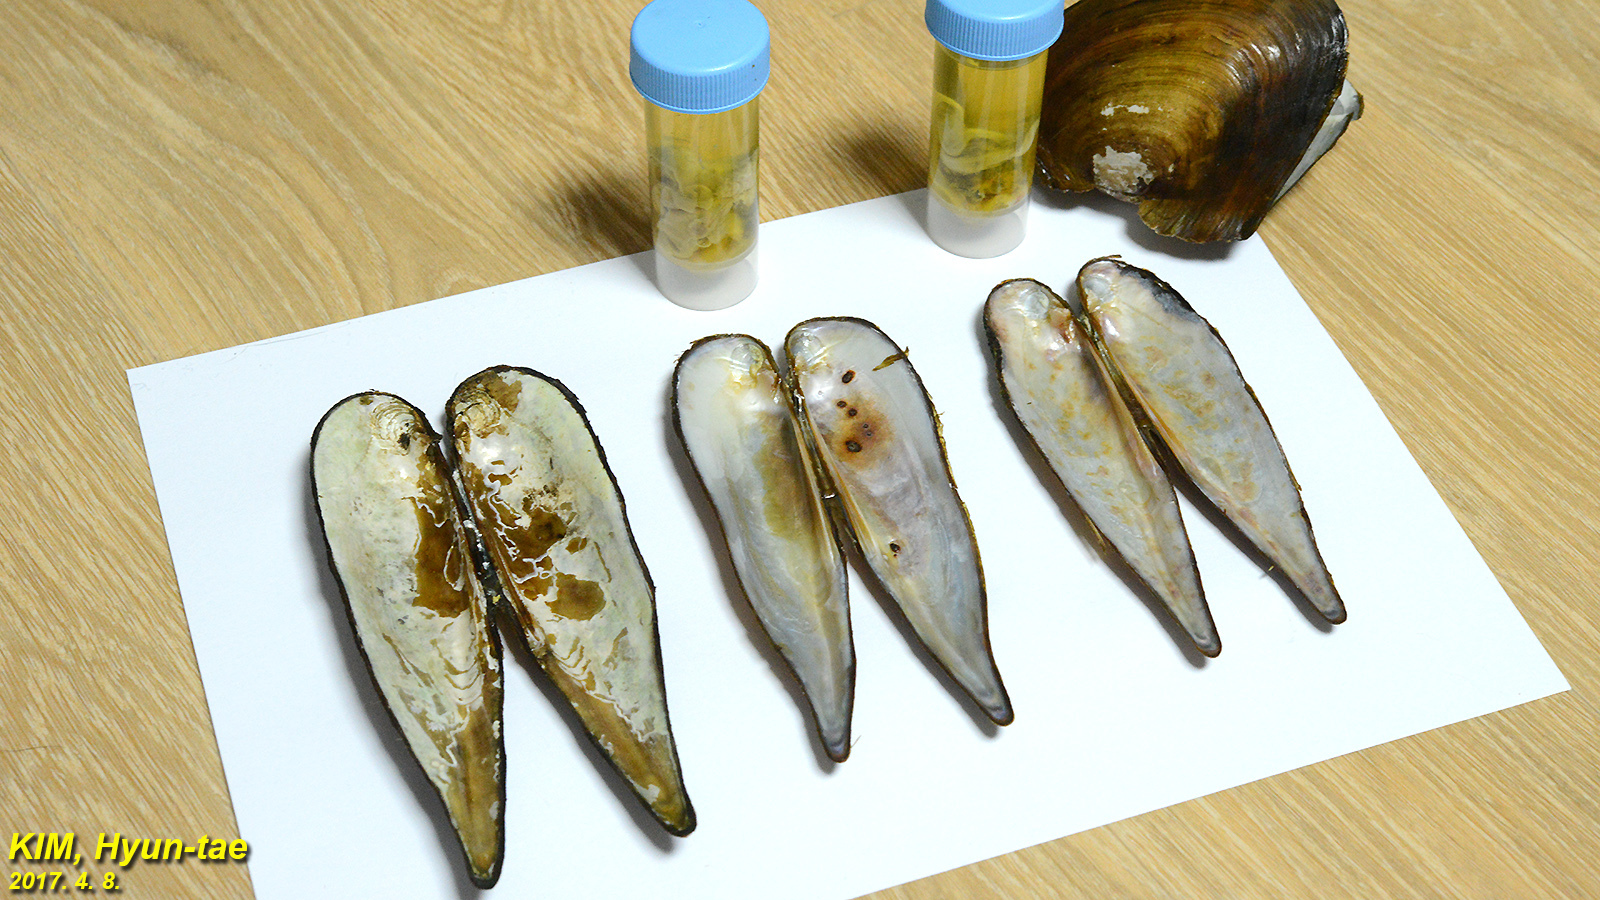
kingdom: Animalia
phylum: Mollusca
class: Bivalvia
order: Unionida
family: Unionidae
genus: Lanceolaria
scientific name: Lanceolaria acrorrhyncha
